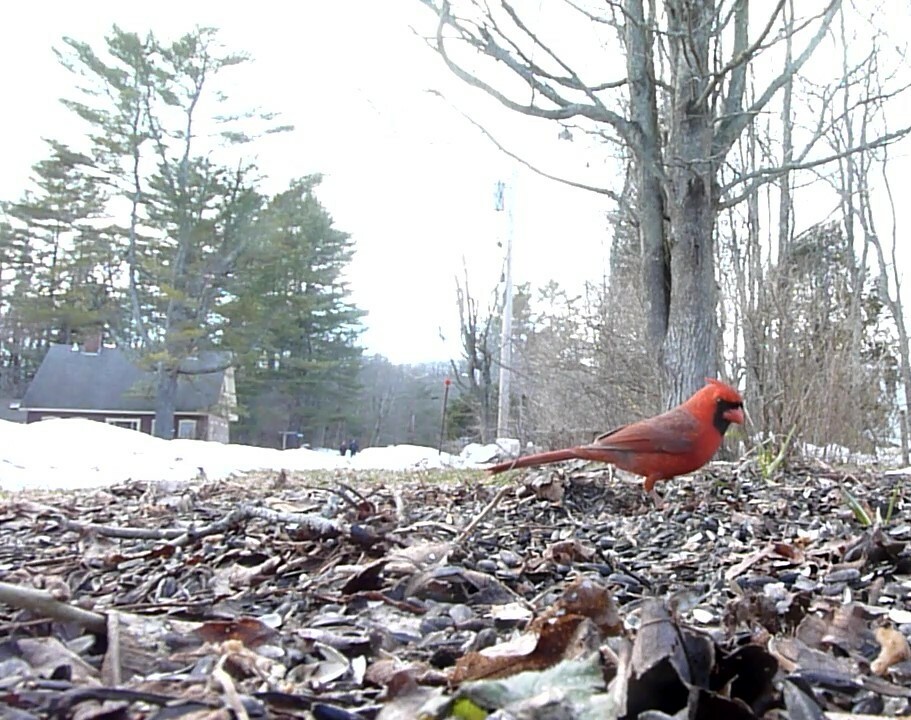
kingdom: Animalia
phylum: Chordata
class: Aves
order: Passeriformes
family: Cardinalidae
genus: Cardinalis
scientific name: Cardinalis cardinalis
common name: Northern cardinal
